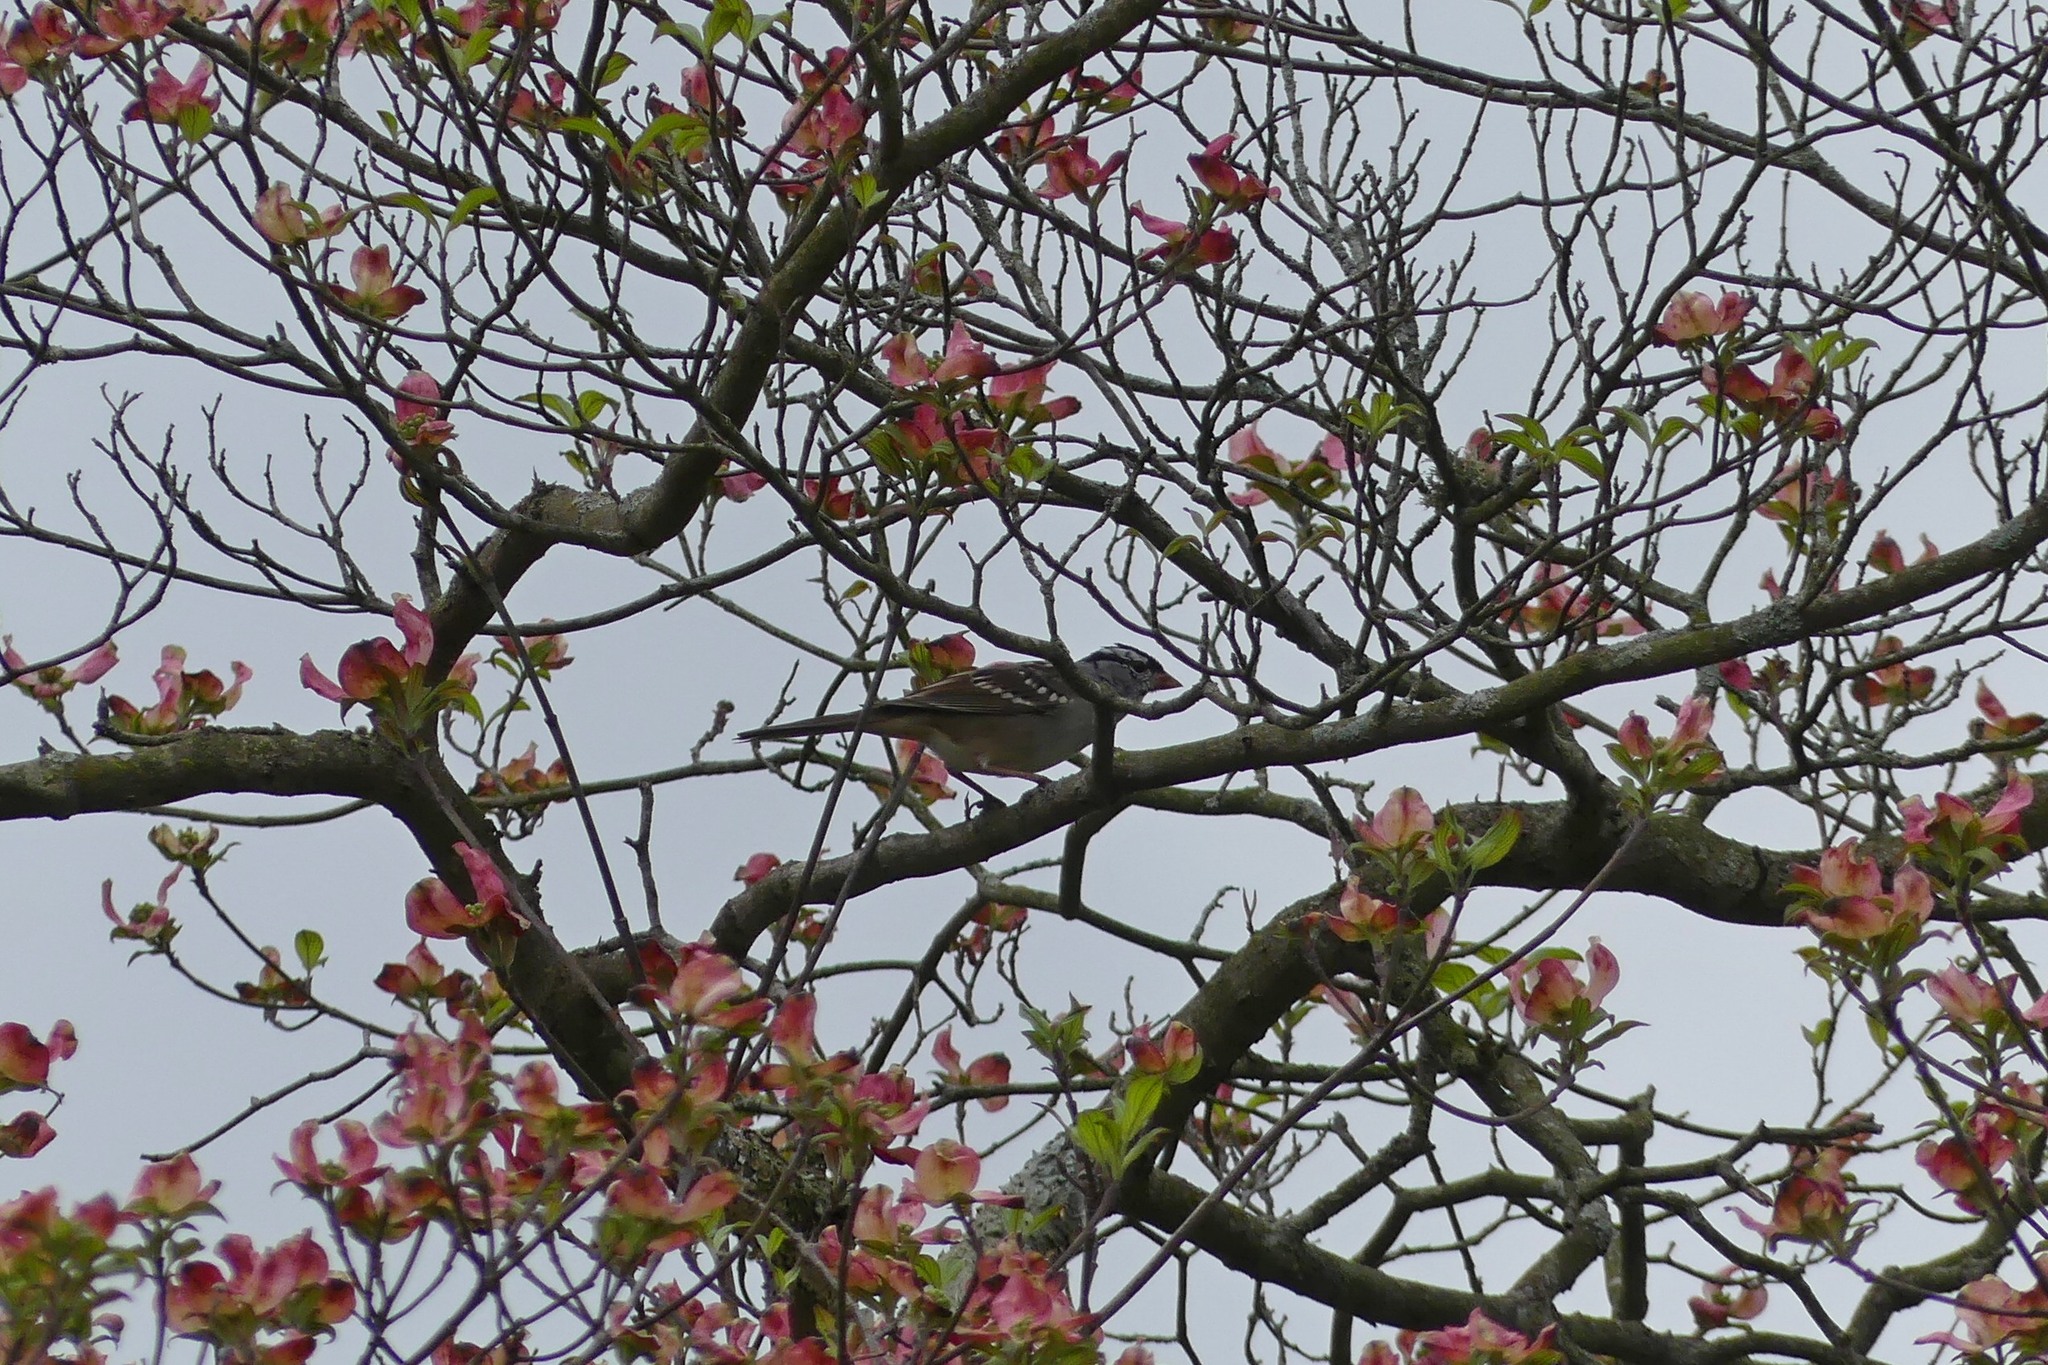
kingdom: Animalia
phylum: Chordata
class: Aves
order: Passeriformes
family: Passerellidae
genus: Zonotrichia
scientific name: Zonotrichia leucophrys
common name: White-crowned sparrow
